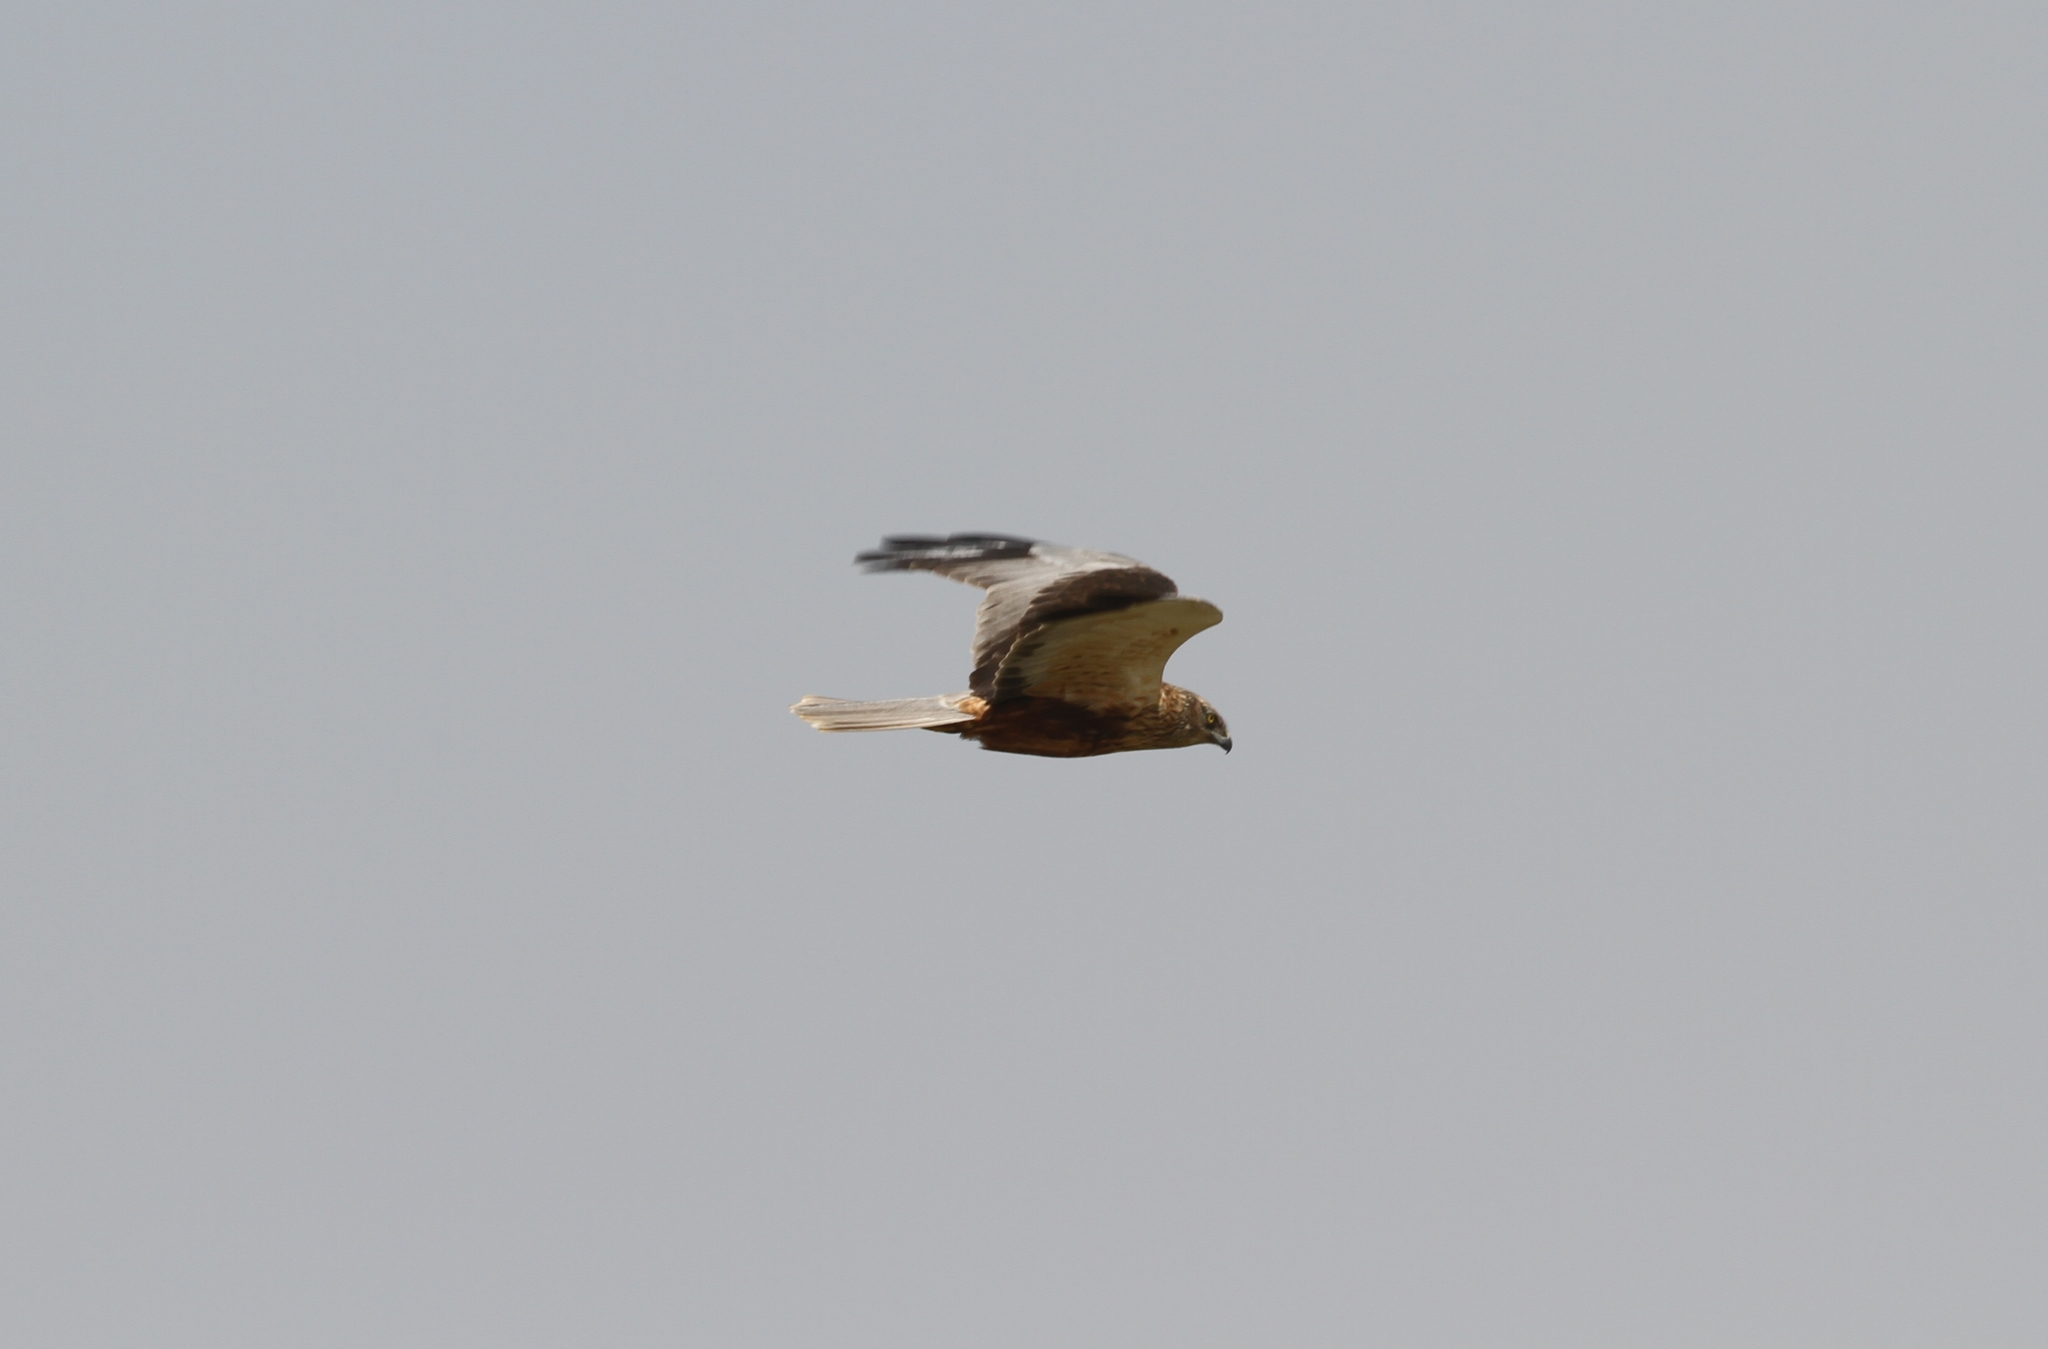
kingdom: Animalia
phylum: Chordata
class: Aves
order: Accipitriformes
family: Accipitridae
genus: Circus
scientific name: Circus aeruginosus
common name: Western marsh harrier
